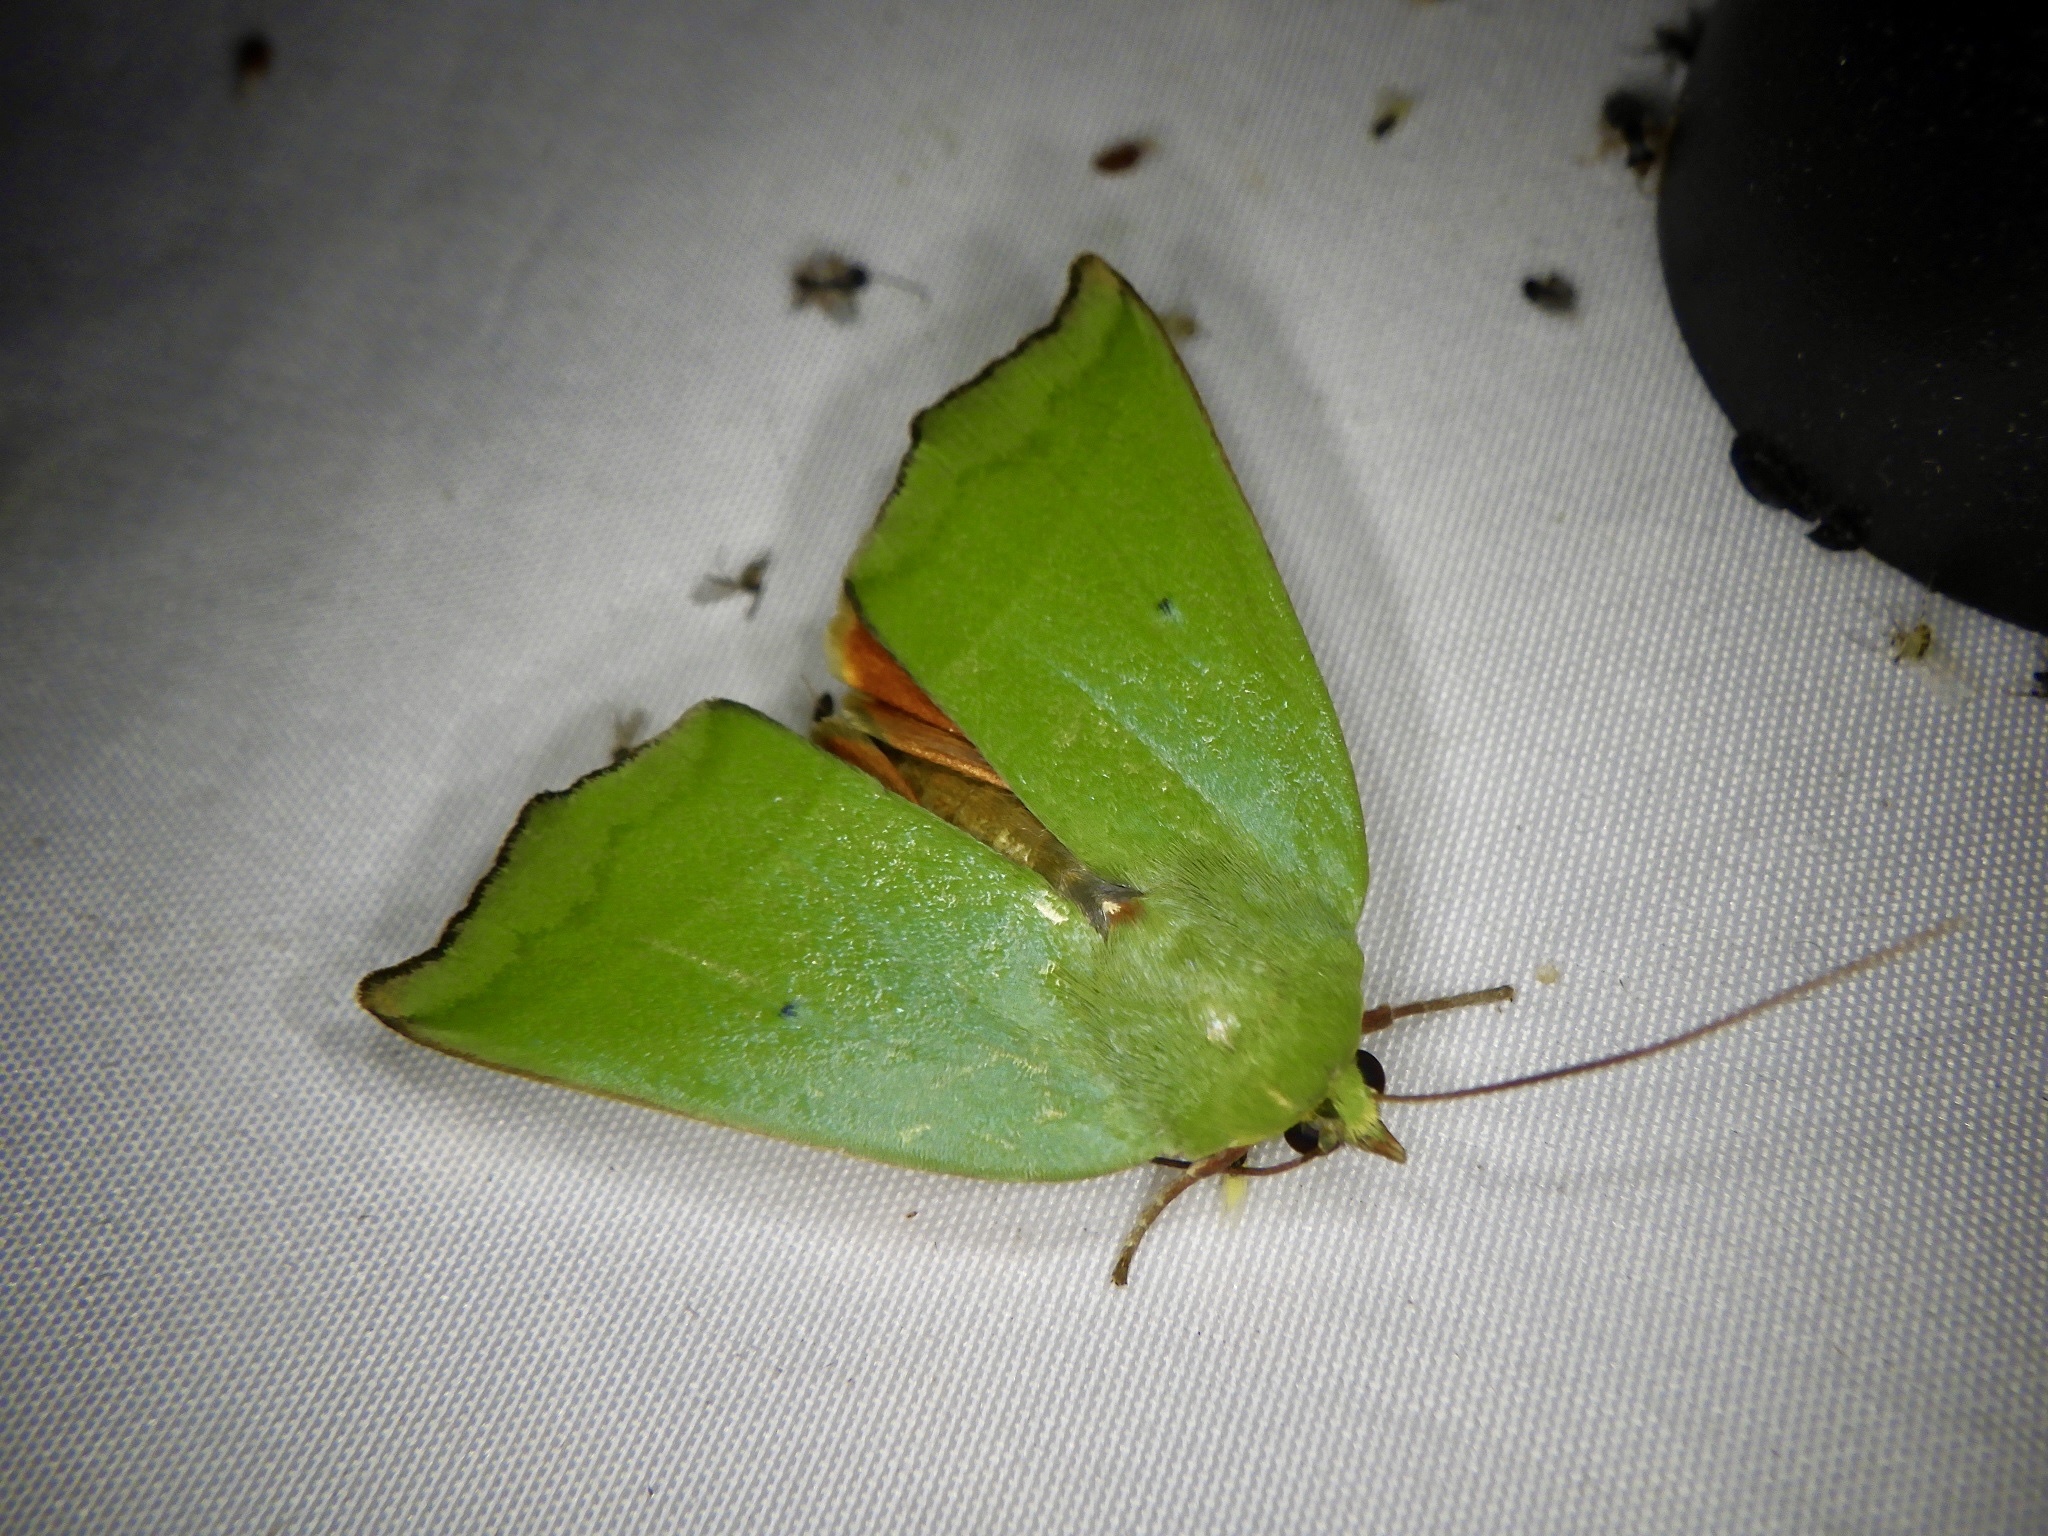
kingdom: Animalia
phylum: Arthropoda
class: Insecta
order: Lepidoptera
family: Nolidae
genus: Clethrophora
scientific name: Clethrophora distincta
